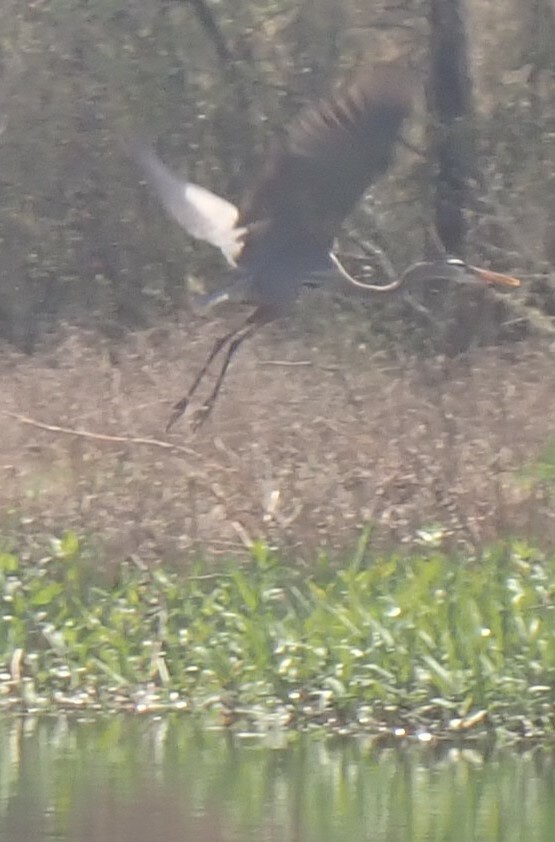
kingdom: Animalia
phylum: Chordata
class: Aves
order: Pelecaniformes
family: Ardeidae
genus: Ardea
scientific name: Ardea herodias
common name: Great blue heron
